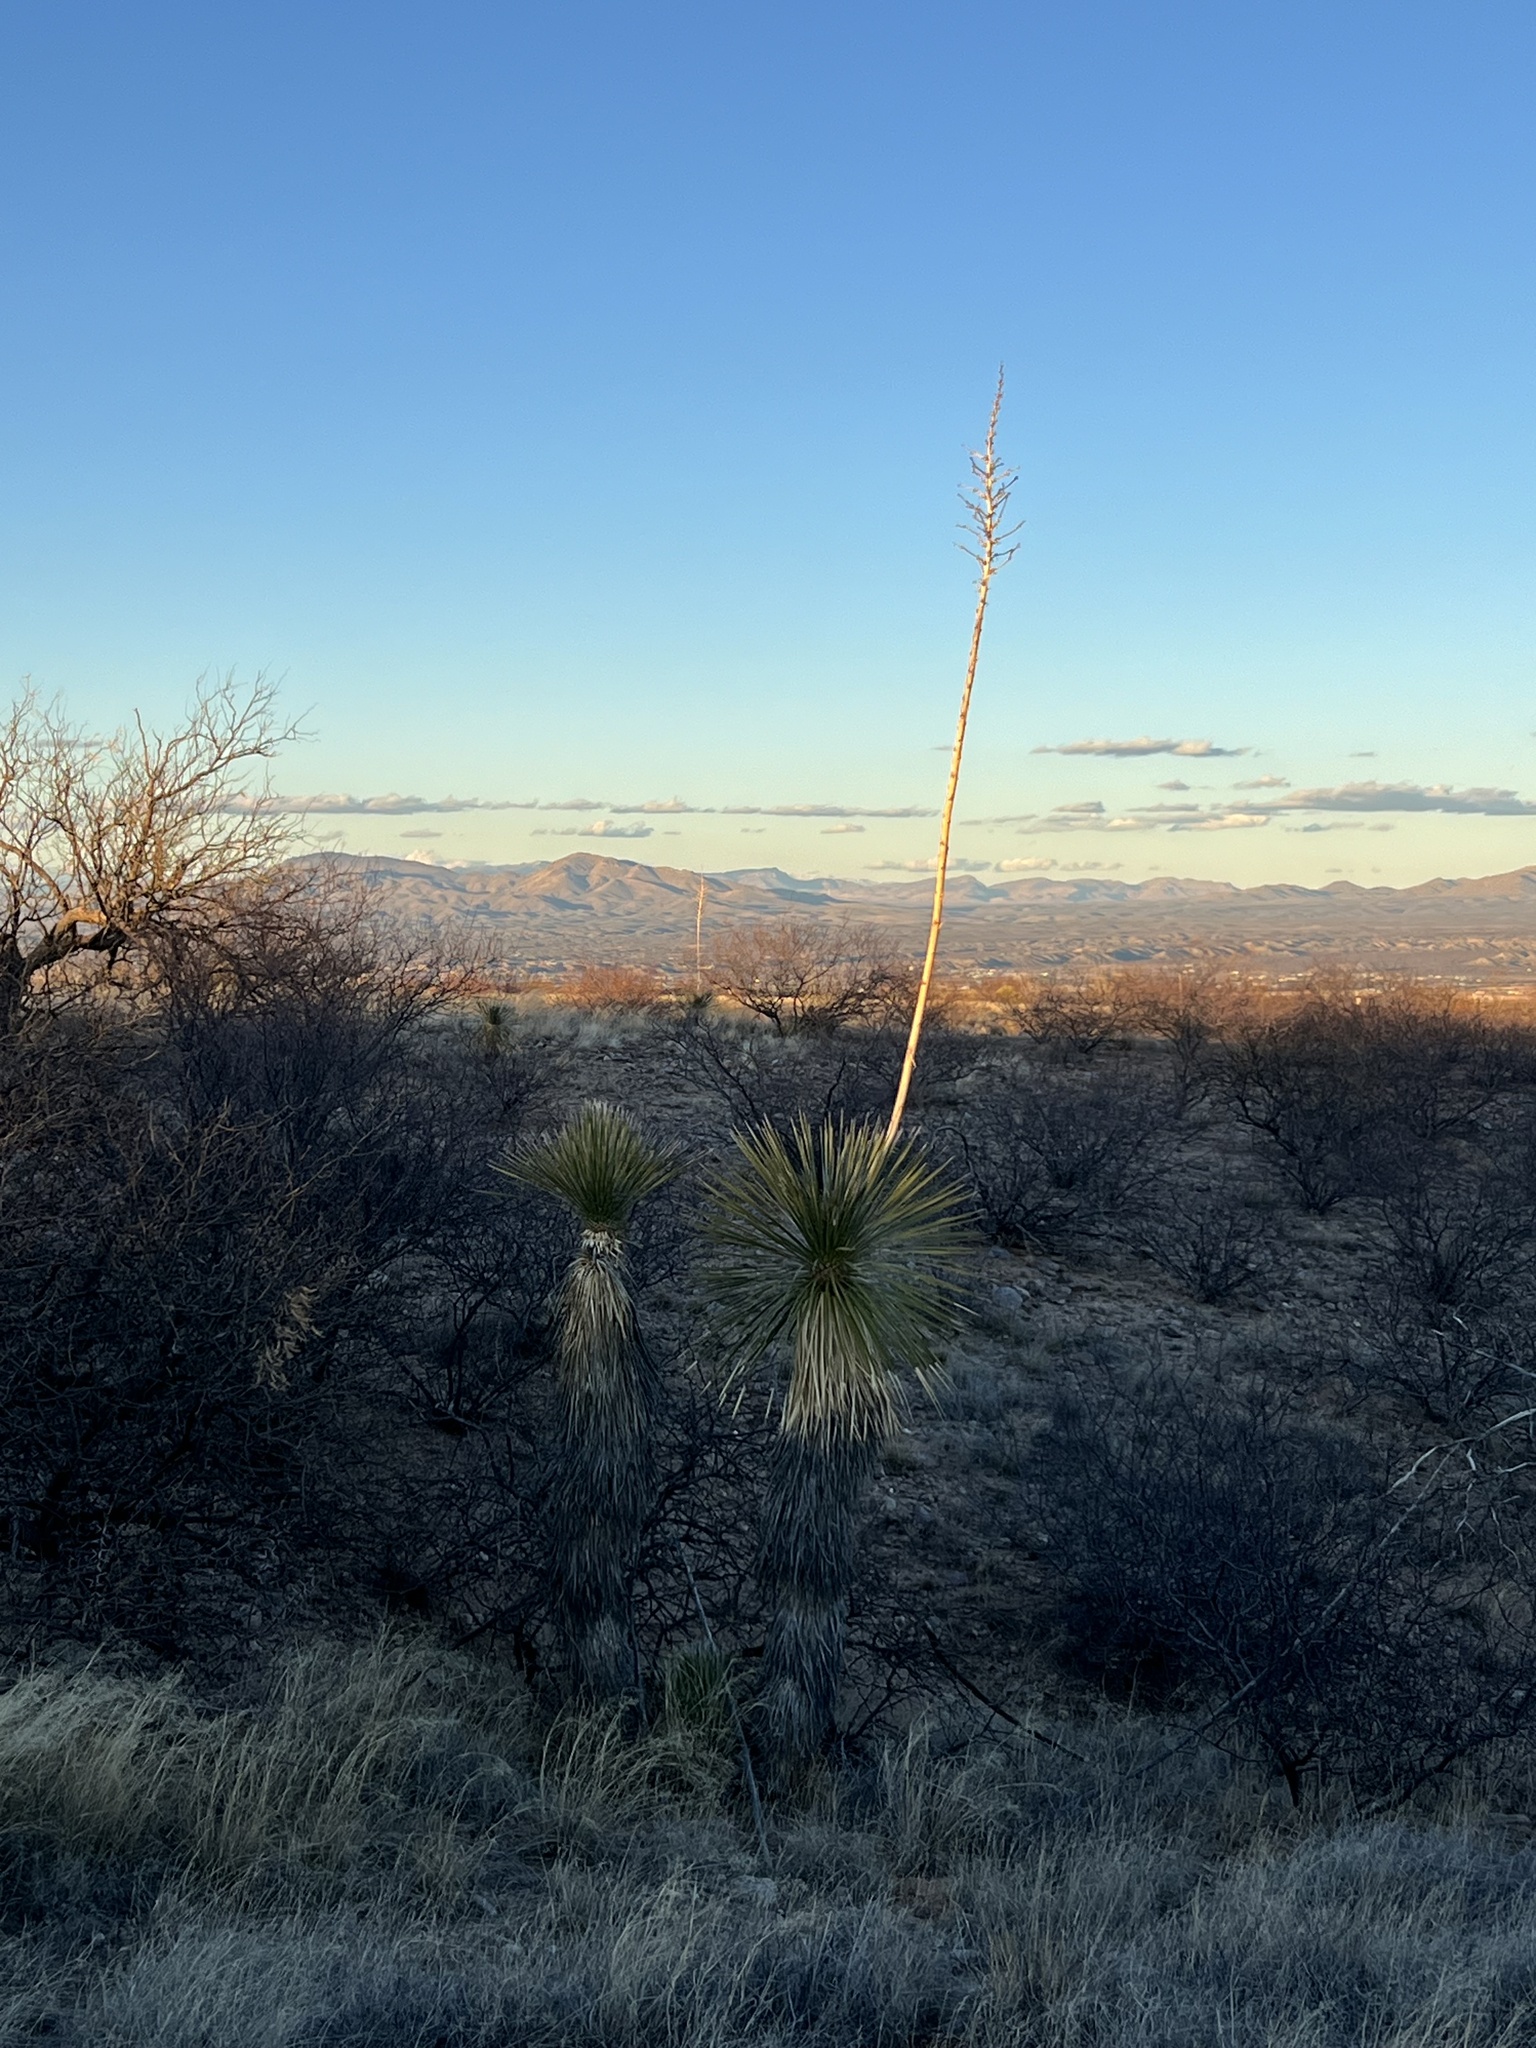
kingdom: Plantae
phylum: Tracheophyta
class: Liliopsida
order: Asparagales
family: Asparagaceae
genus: Yucca
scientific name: Yucca elata
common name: Palmella
